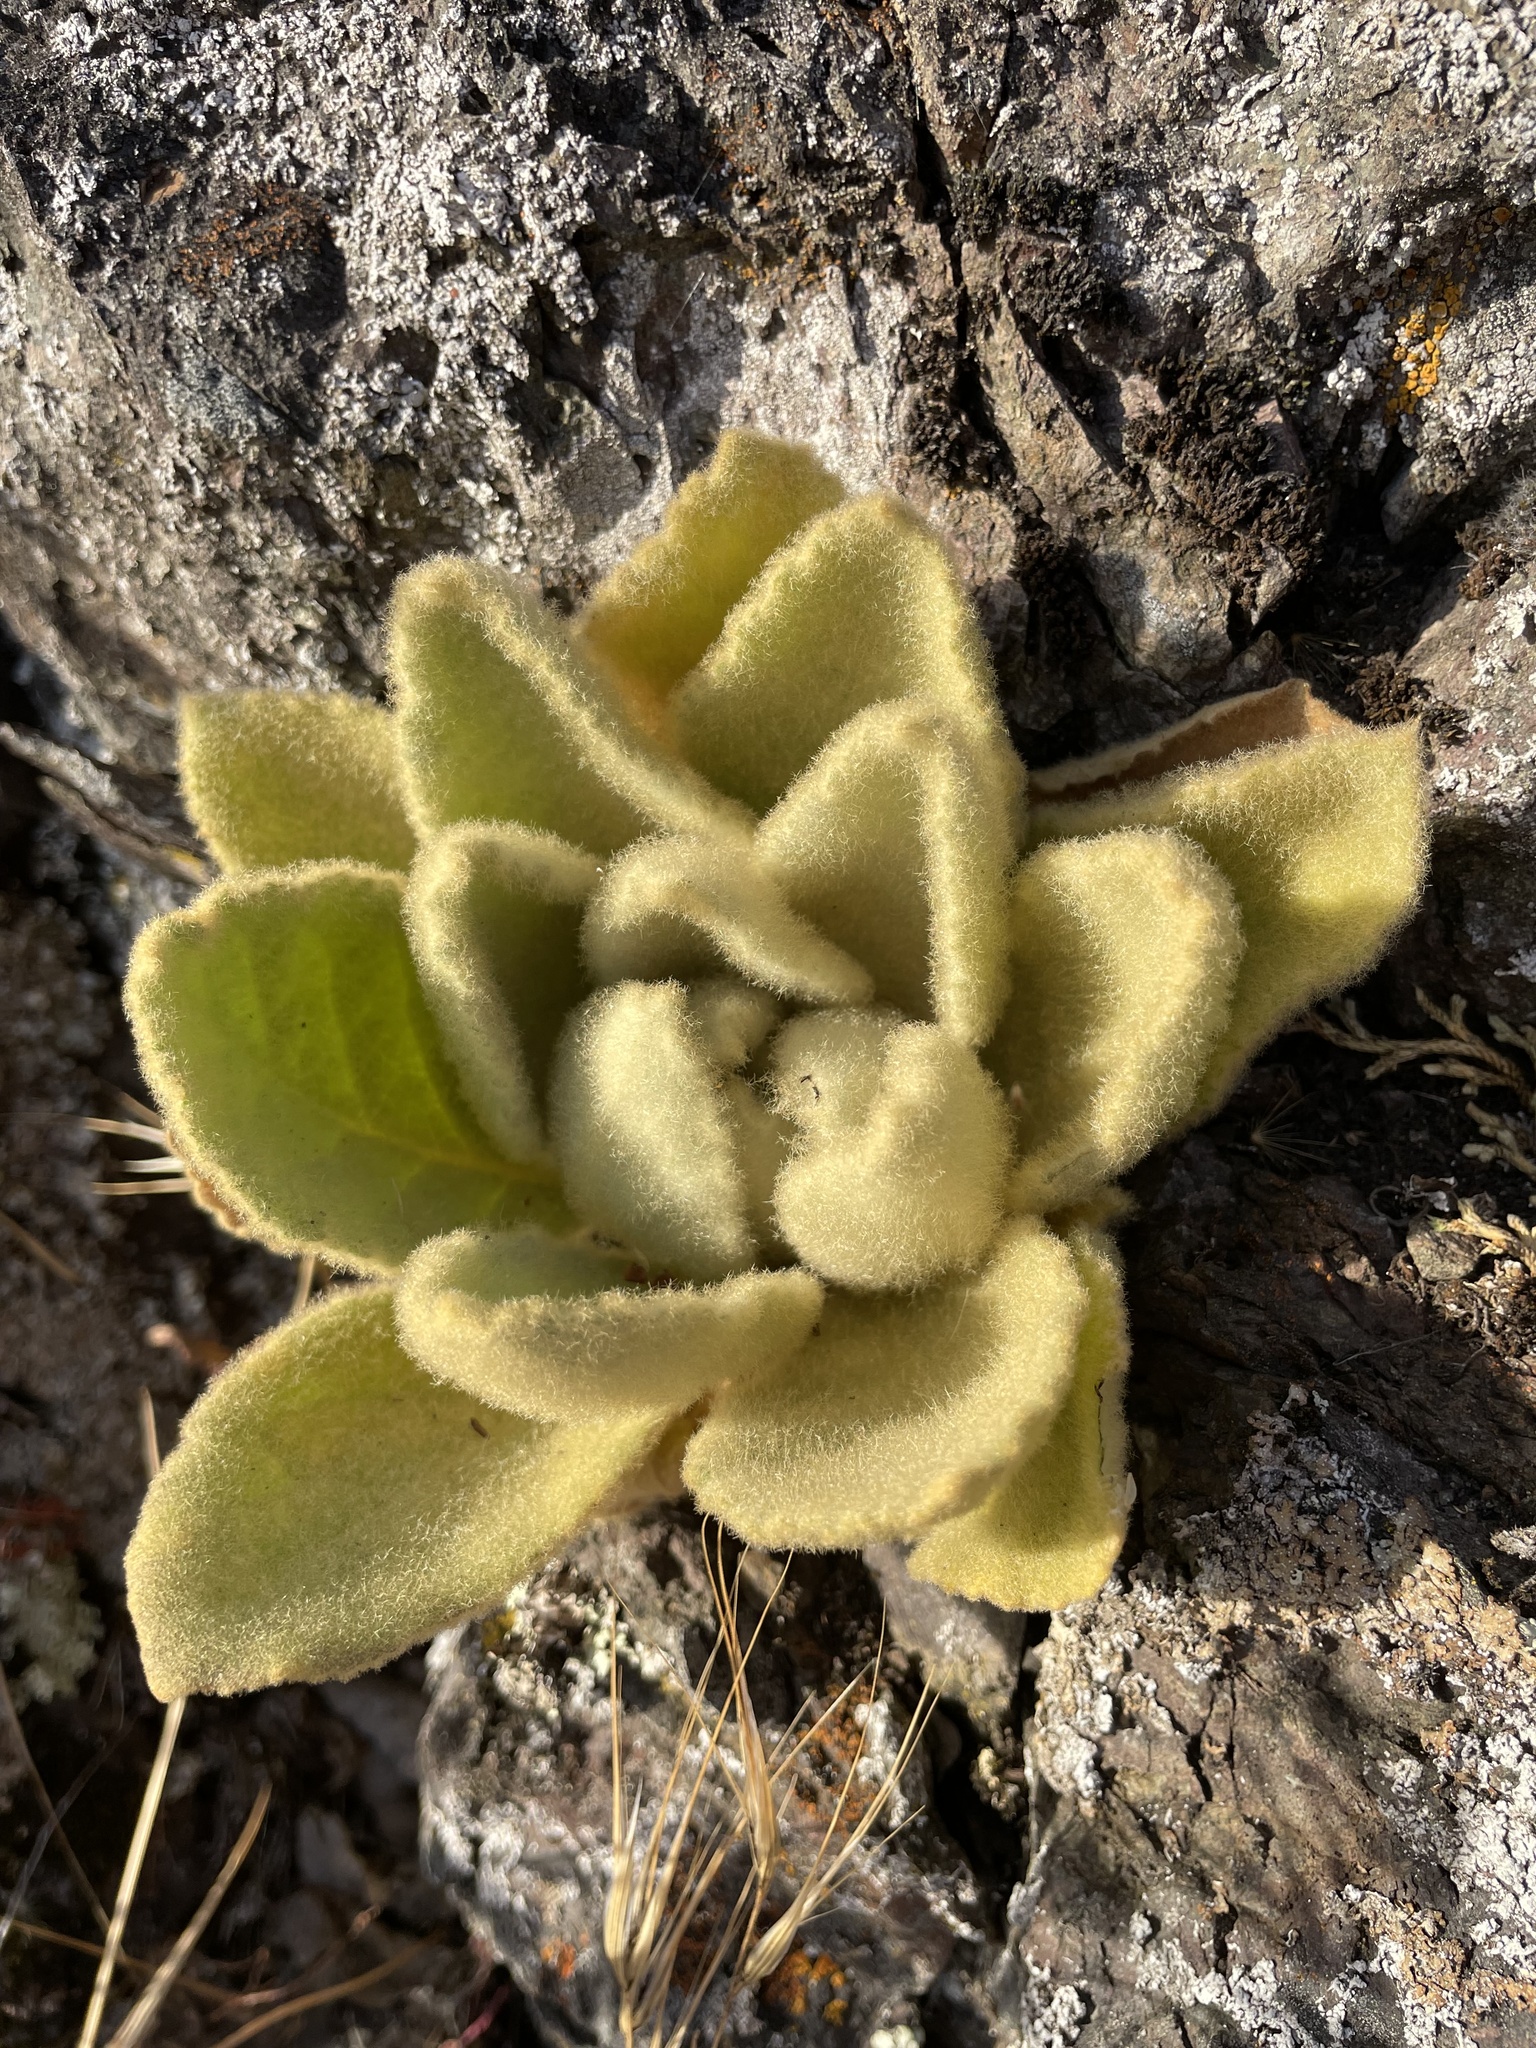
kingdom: Plantae
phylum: Tracheophyta
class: Magnoliopsida
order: Lamiales
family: Scrophulariaceae
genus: Verbascum
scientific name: Verbascum thapsus
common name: Common mullein
